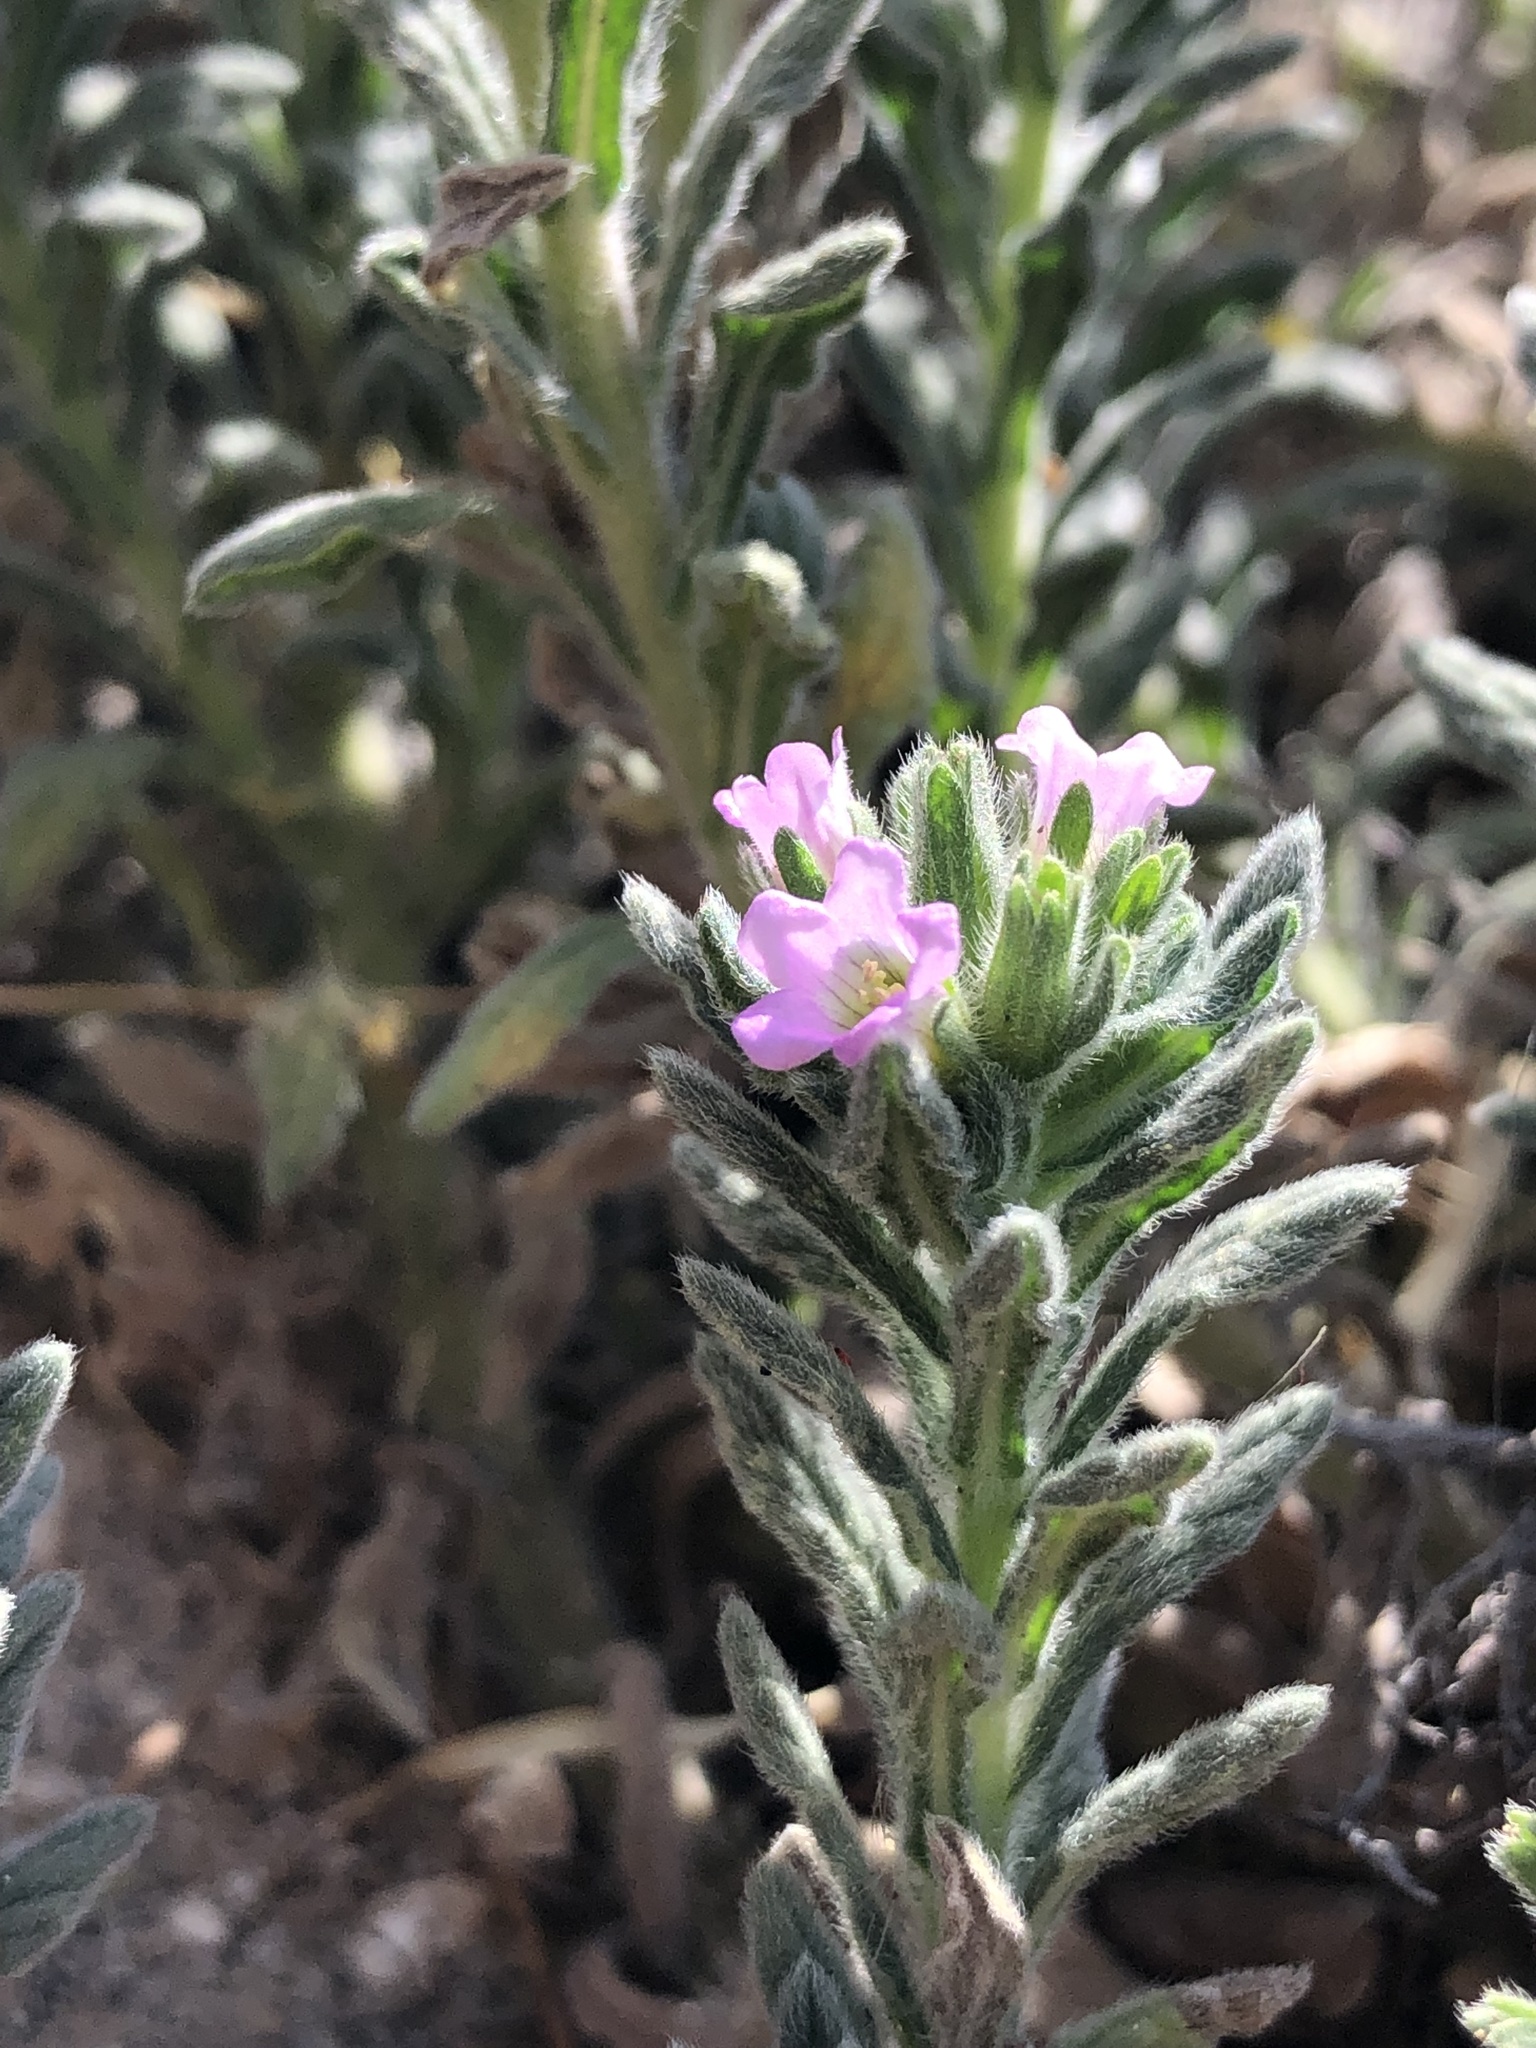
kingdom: Plantae
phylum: Tracheophyta
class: Magnoliopsida
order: Boraginales
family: Namaceae
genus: Nama
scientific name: Nama hispida
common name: Bristly nama
